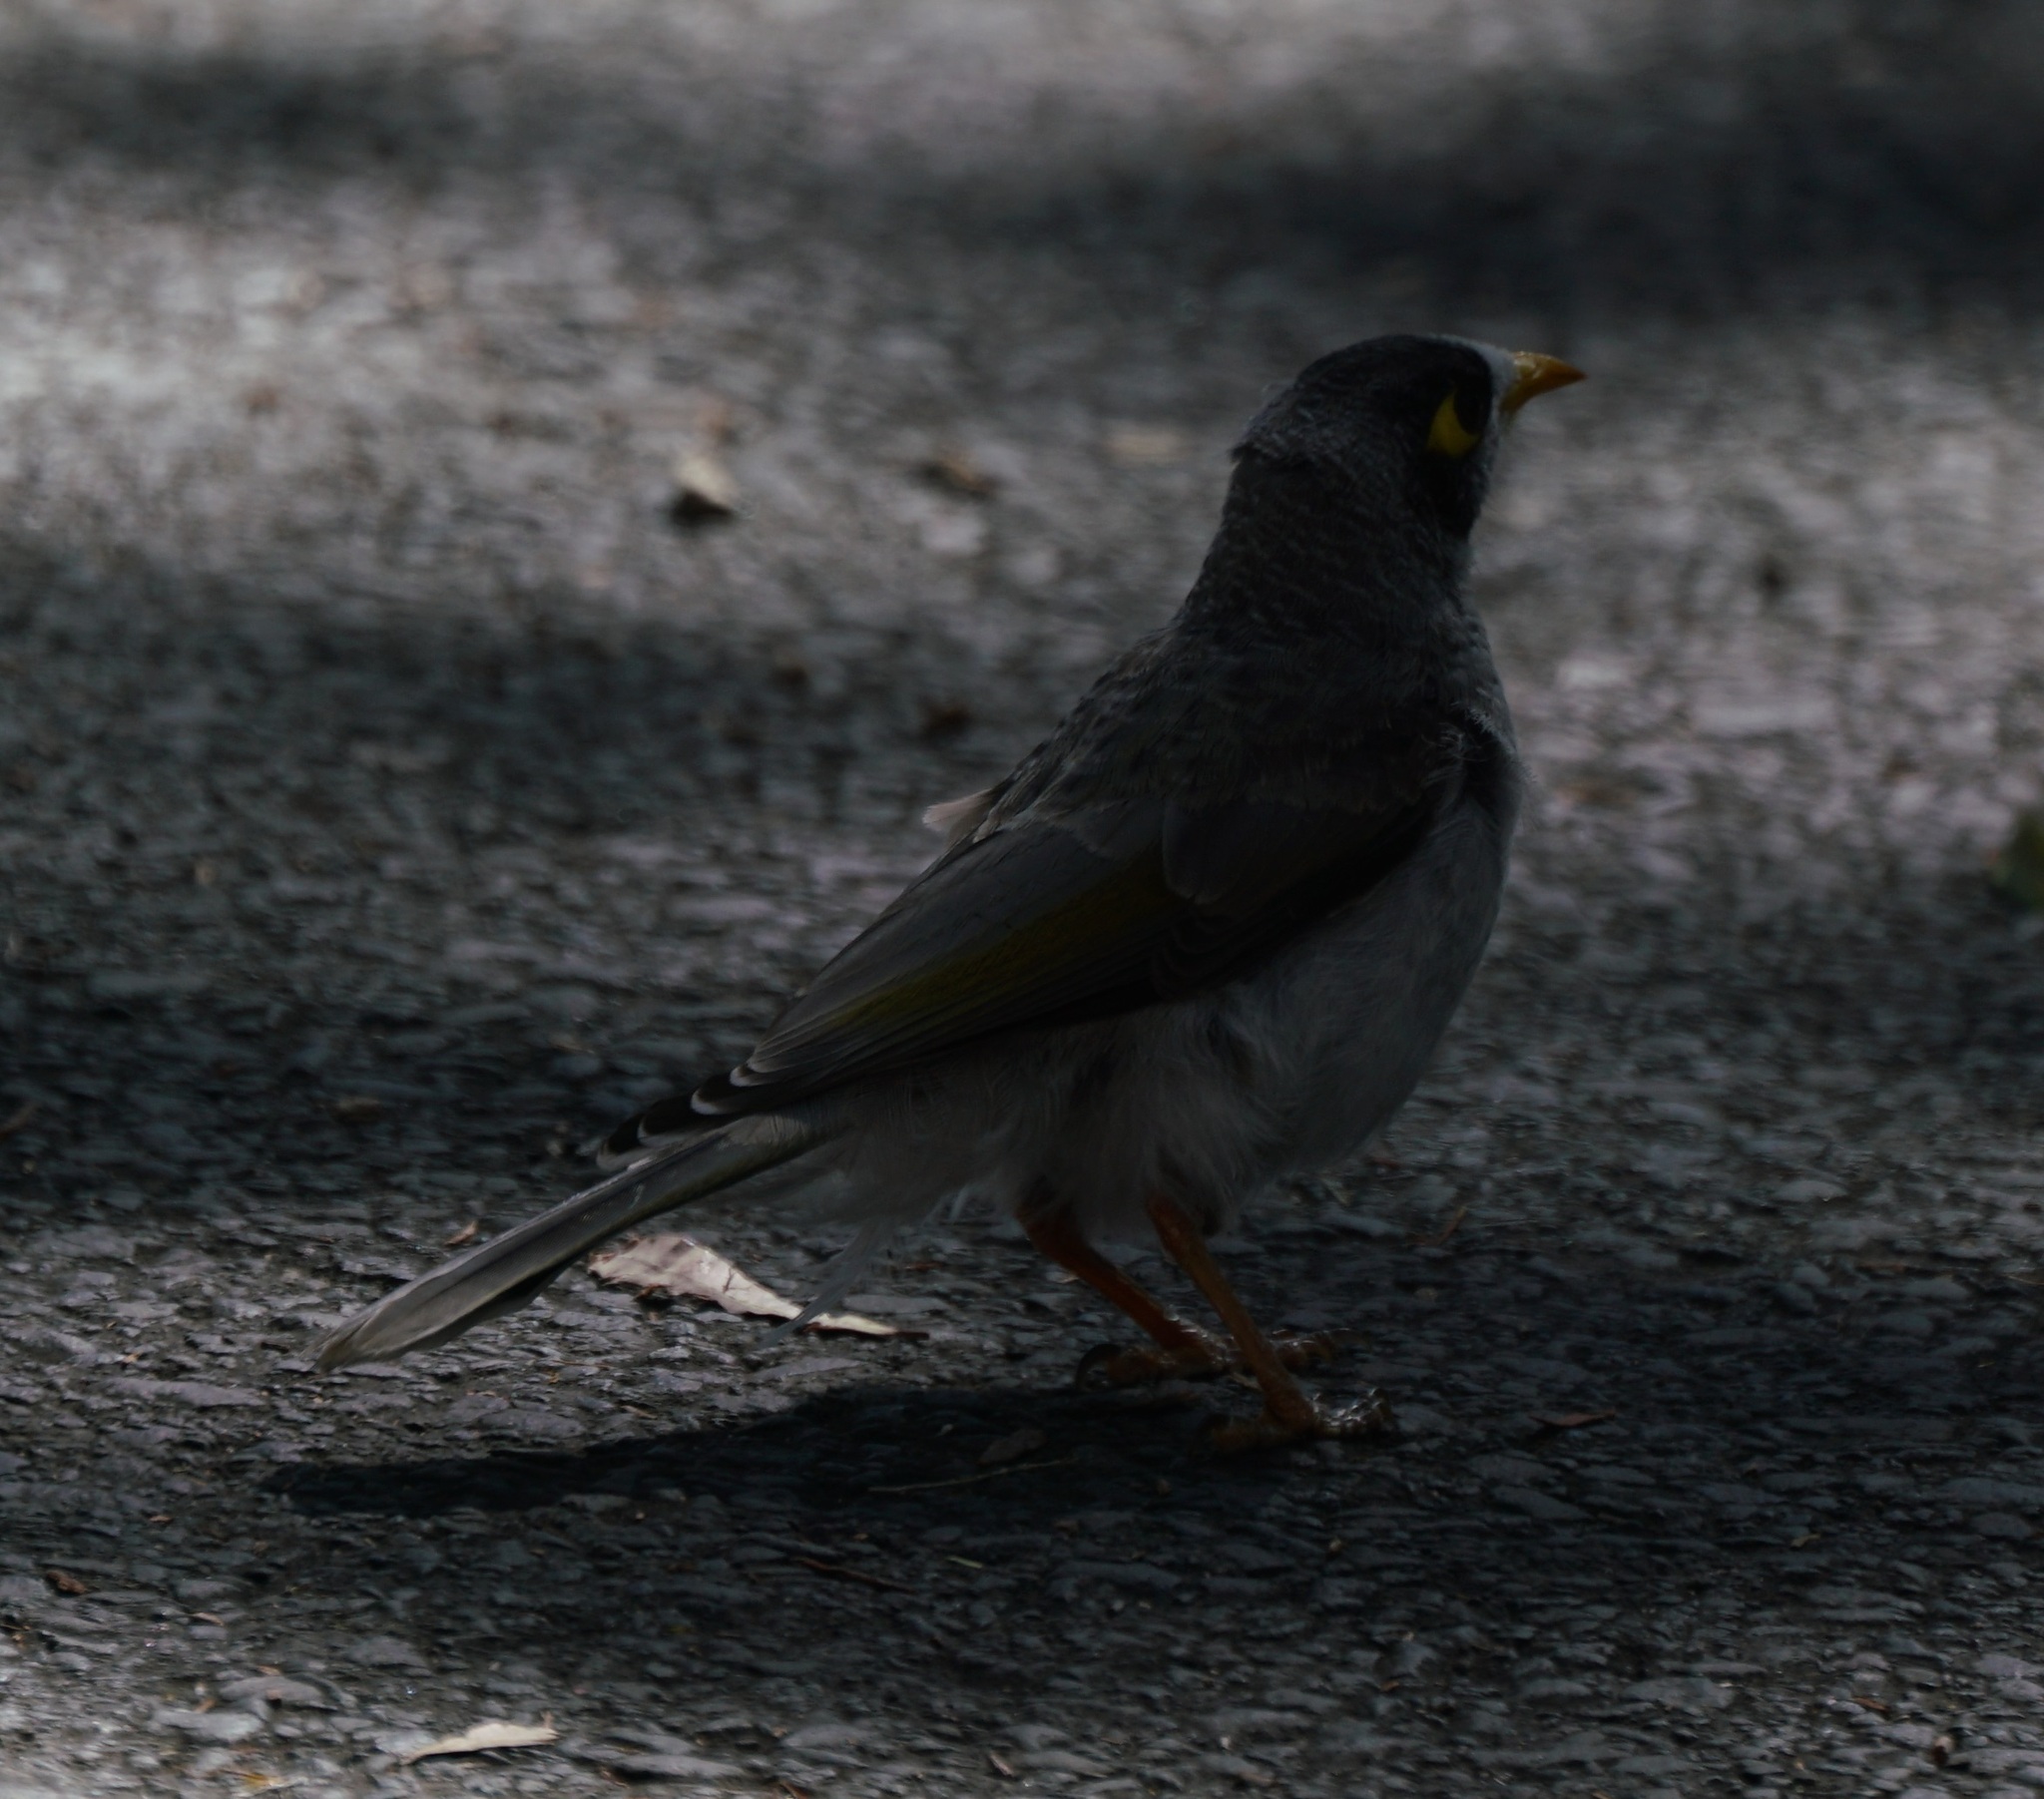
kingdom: Animalia
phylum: Chordata
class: Aves
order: Passeriformes
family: Meliphagidae
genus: Manorina
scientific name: Manorina melanocephala
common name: Noisy miner
